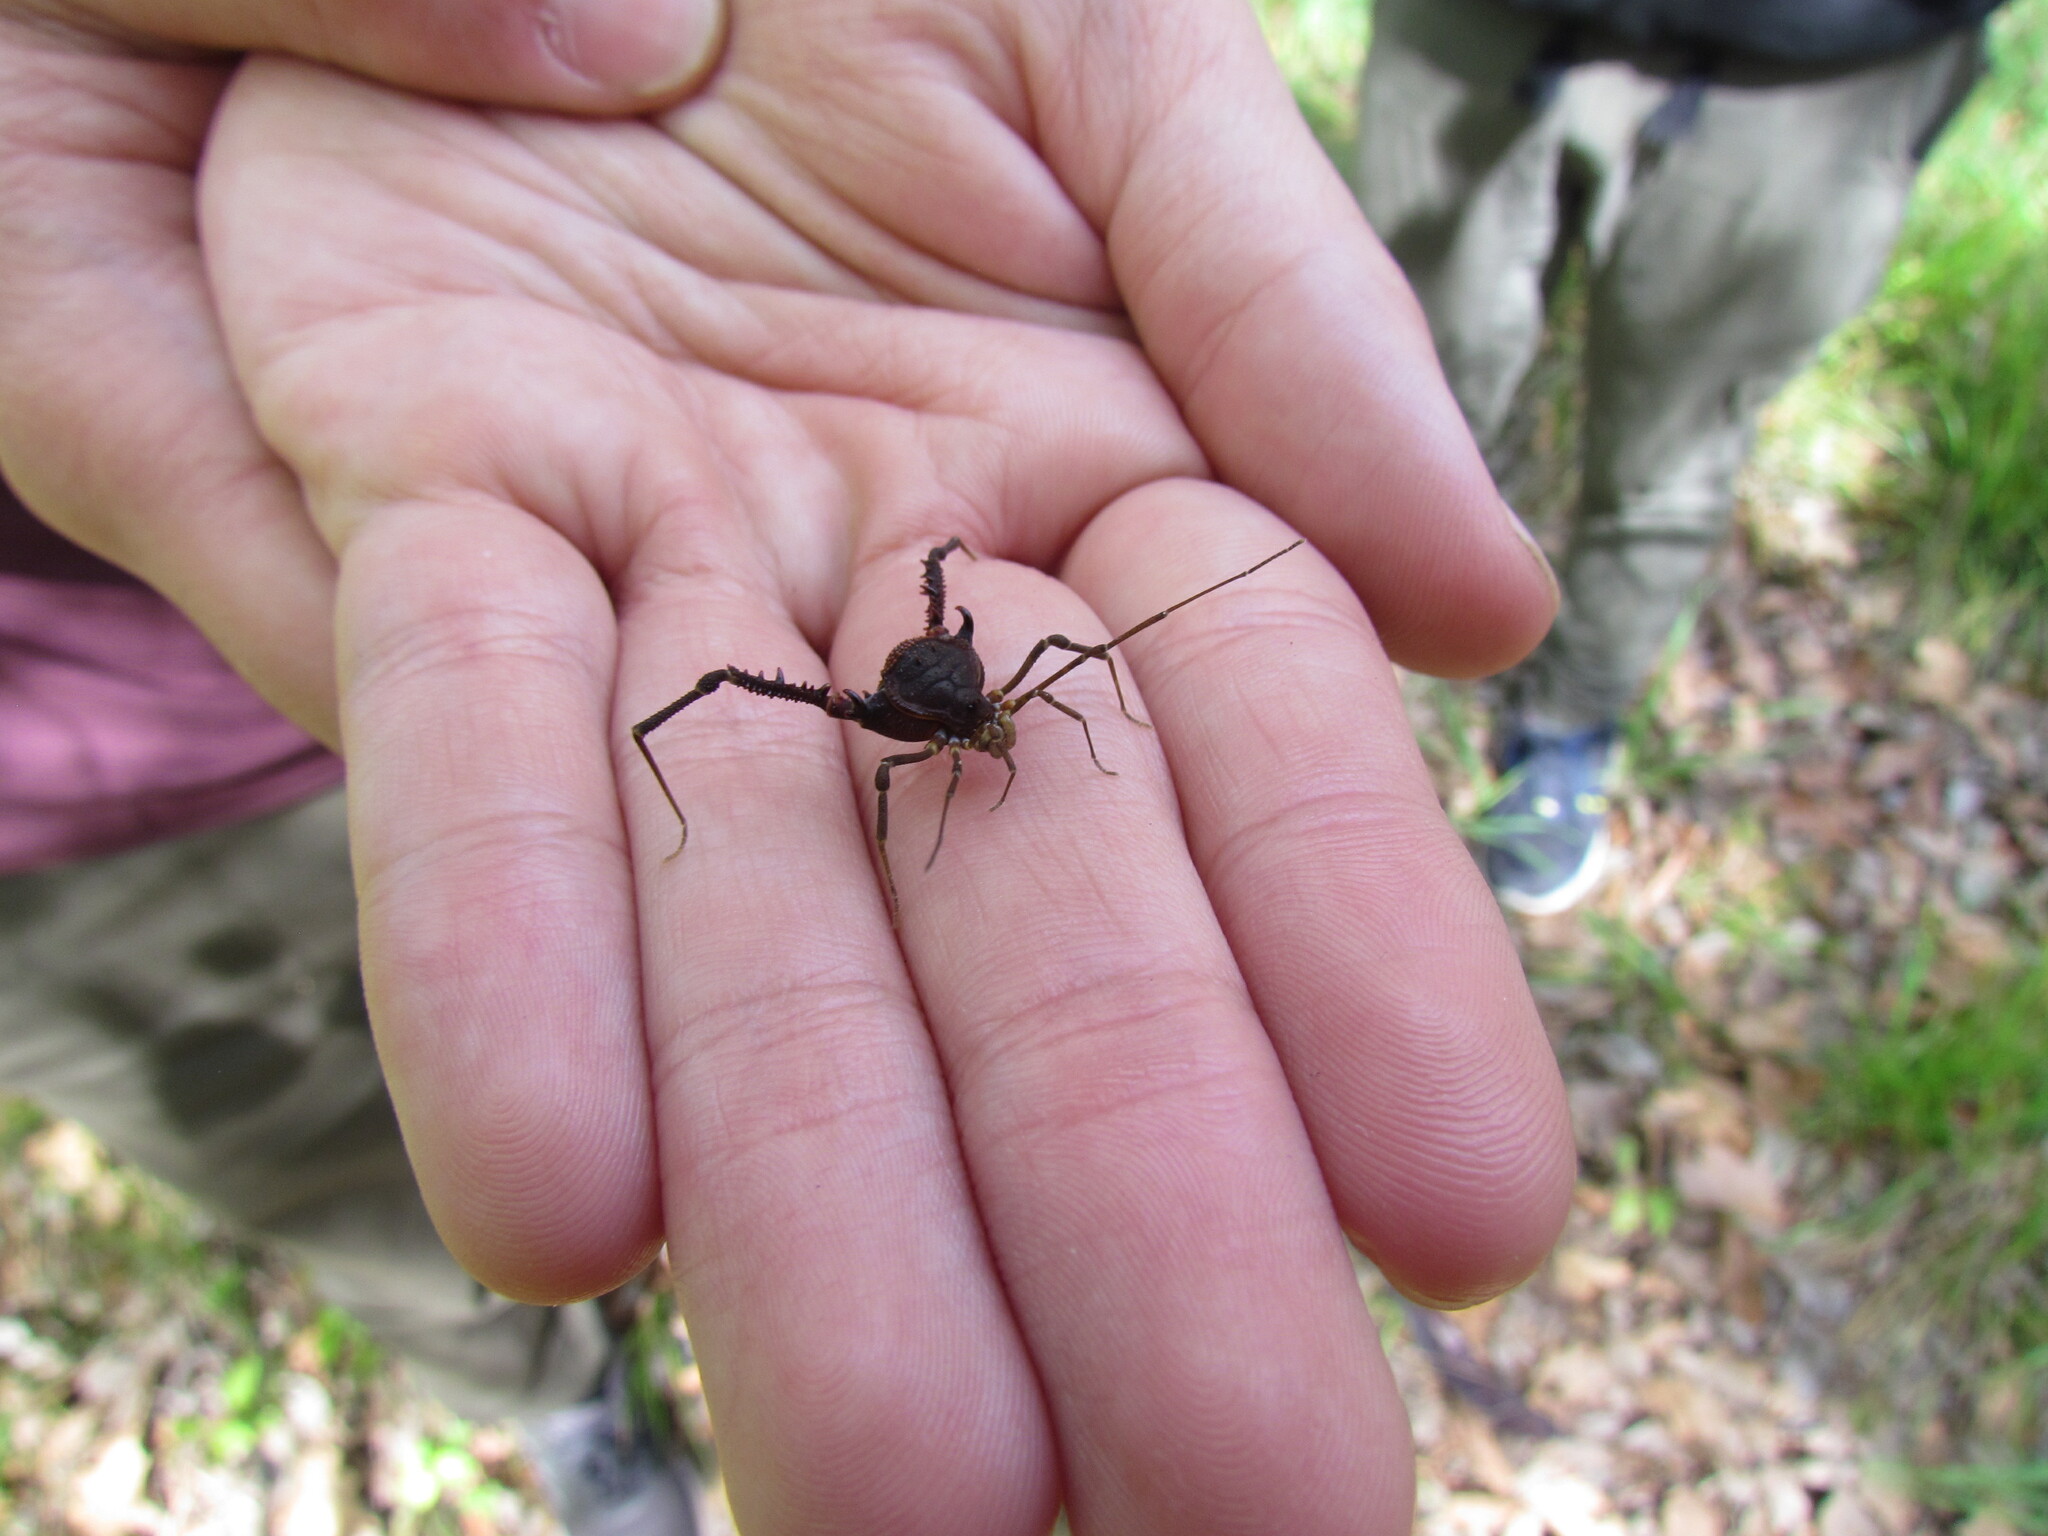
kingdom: Animalia
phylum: Arthropoda
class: Arachnida
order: Opiliones
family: Gonyleptidae
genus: Opisthoplatus
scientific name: Opisthoplatus prospicuus
